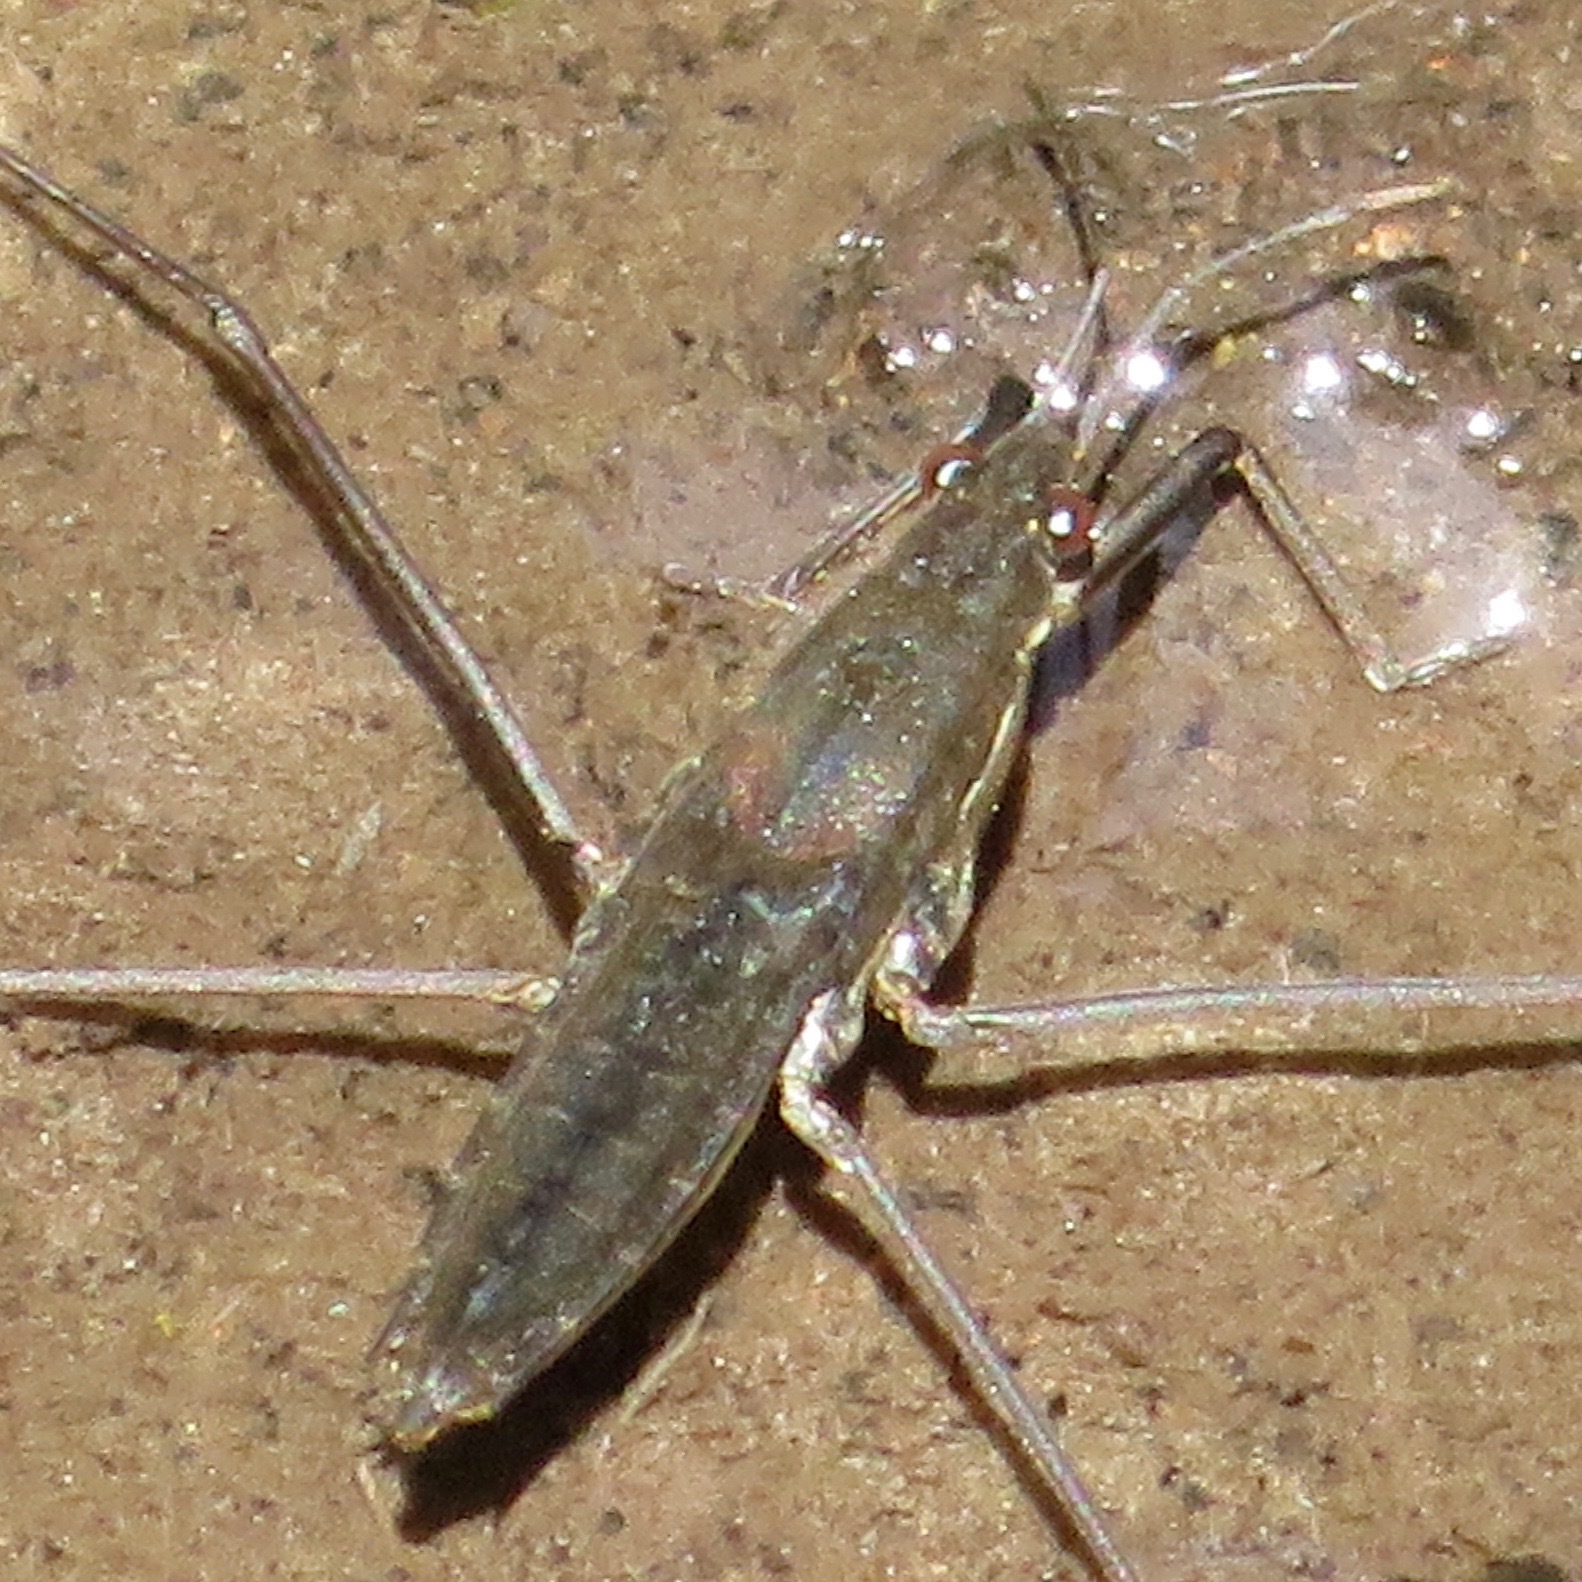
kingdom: Animalia
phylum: Arthropoda
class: Insecta
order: Hemiptera
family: Gerridae
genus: Aquarius
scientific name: Aquarius remigis
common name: Common water strider
